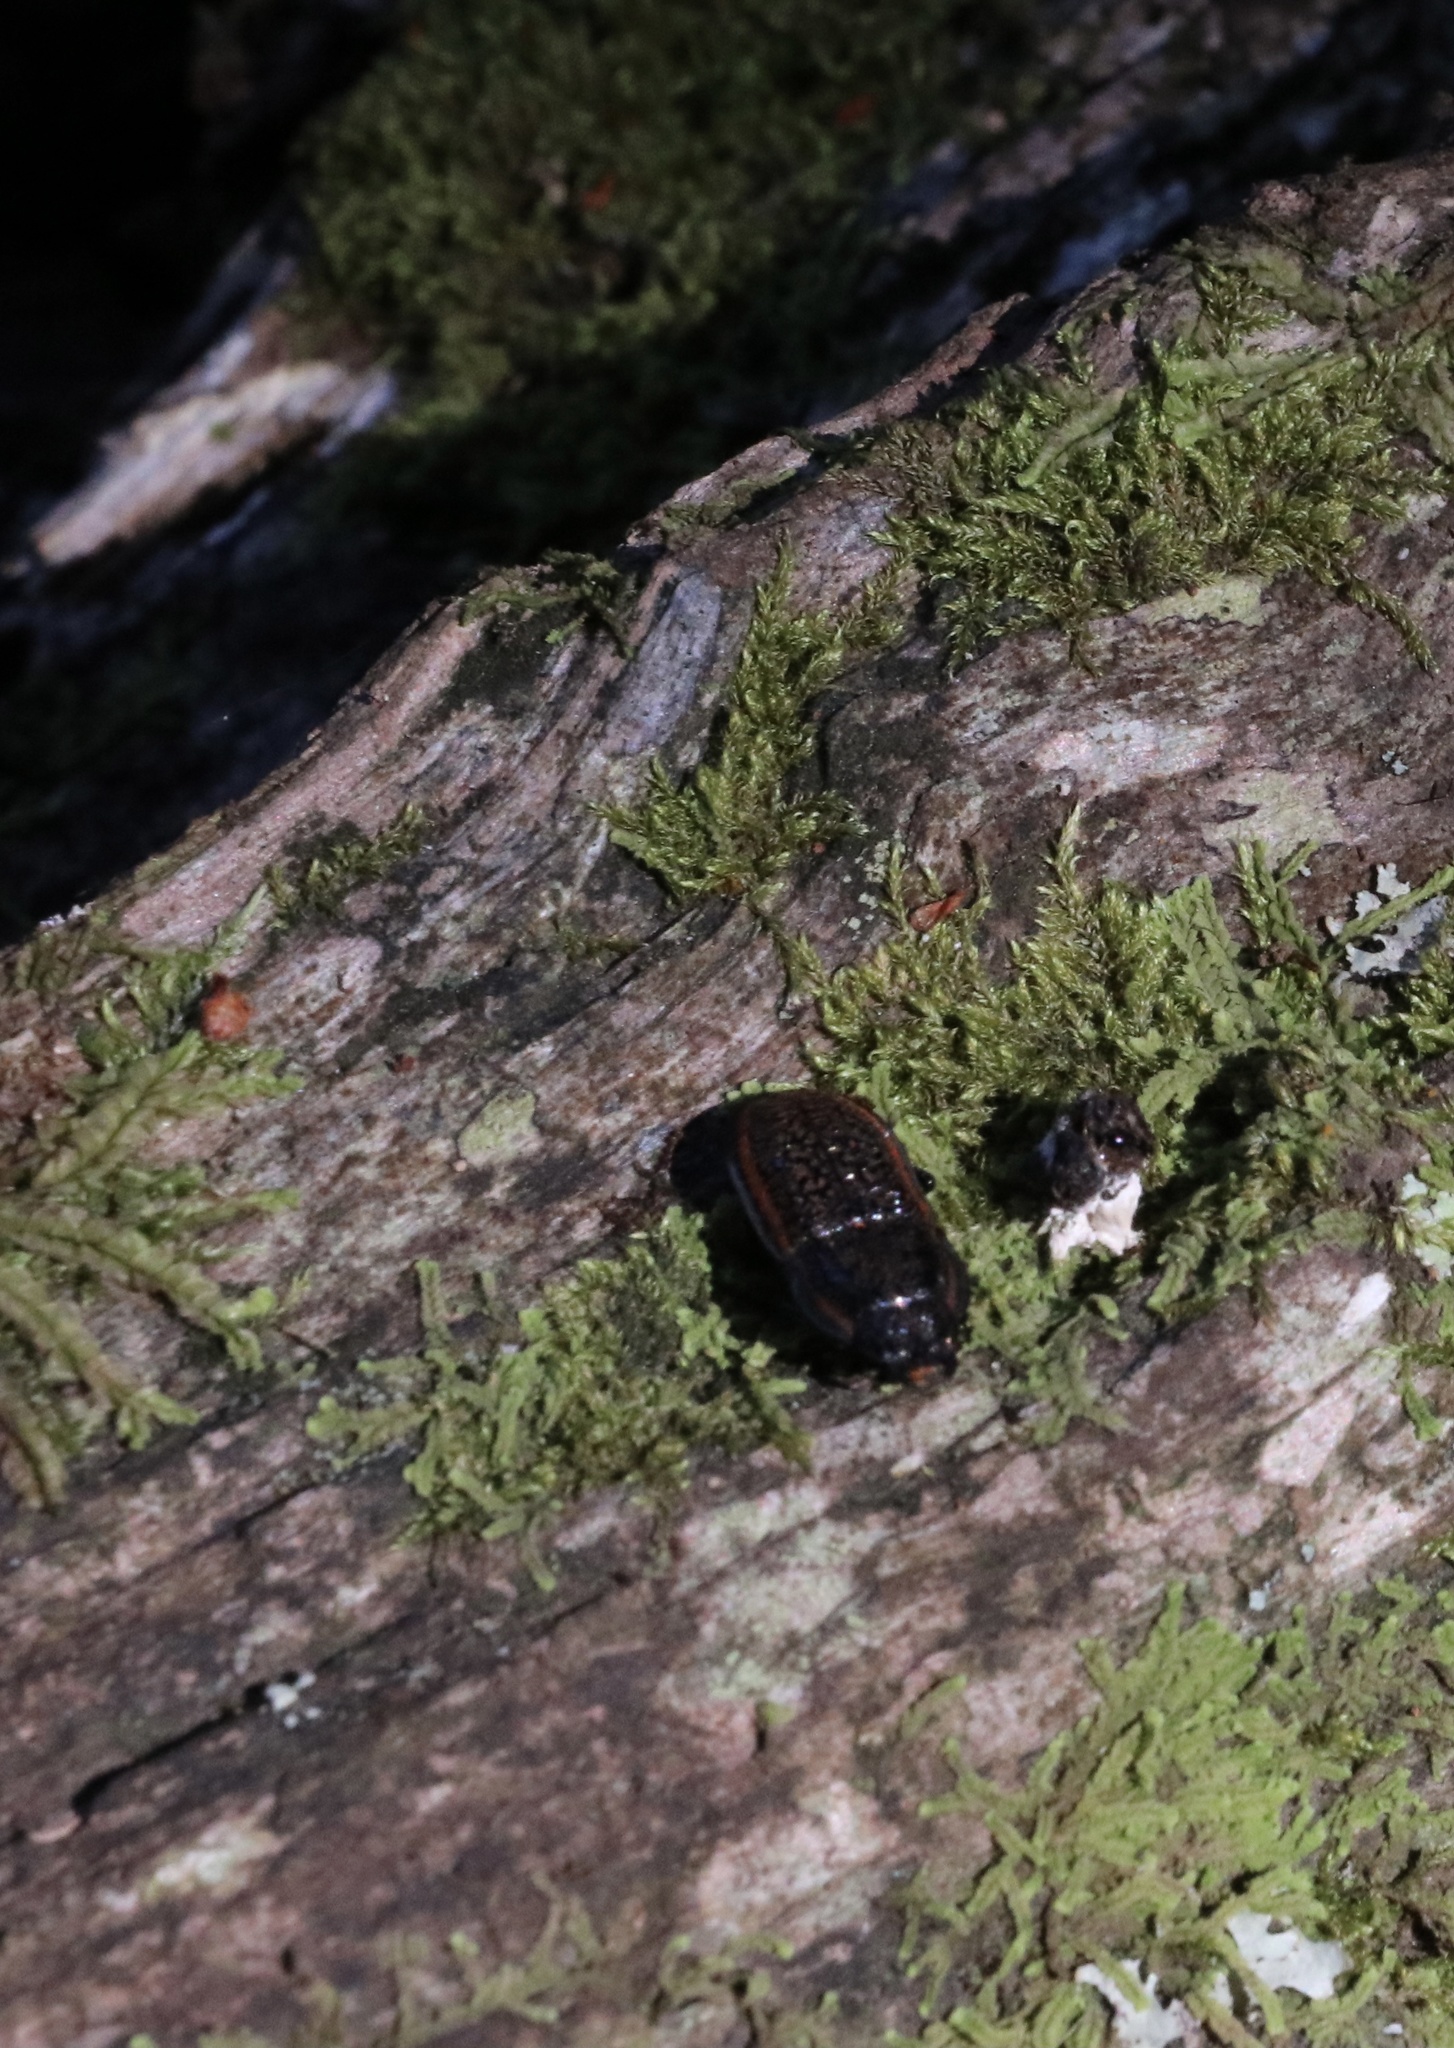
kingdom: Animalia
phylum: Arthropoda
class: Insecta
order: Coleoptera
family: Lucanidae
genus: Erichius
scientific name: Erichius caelatus
